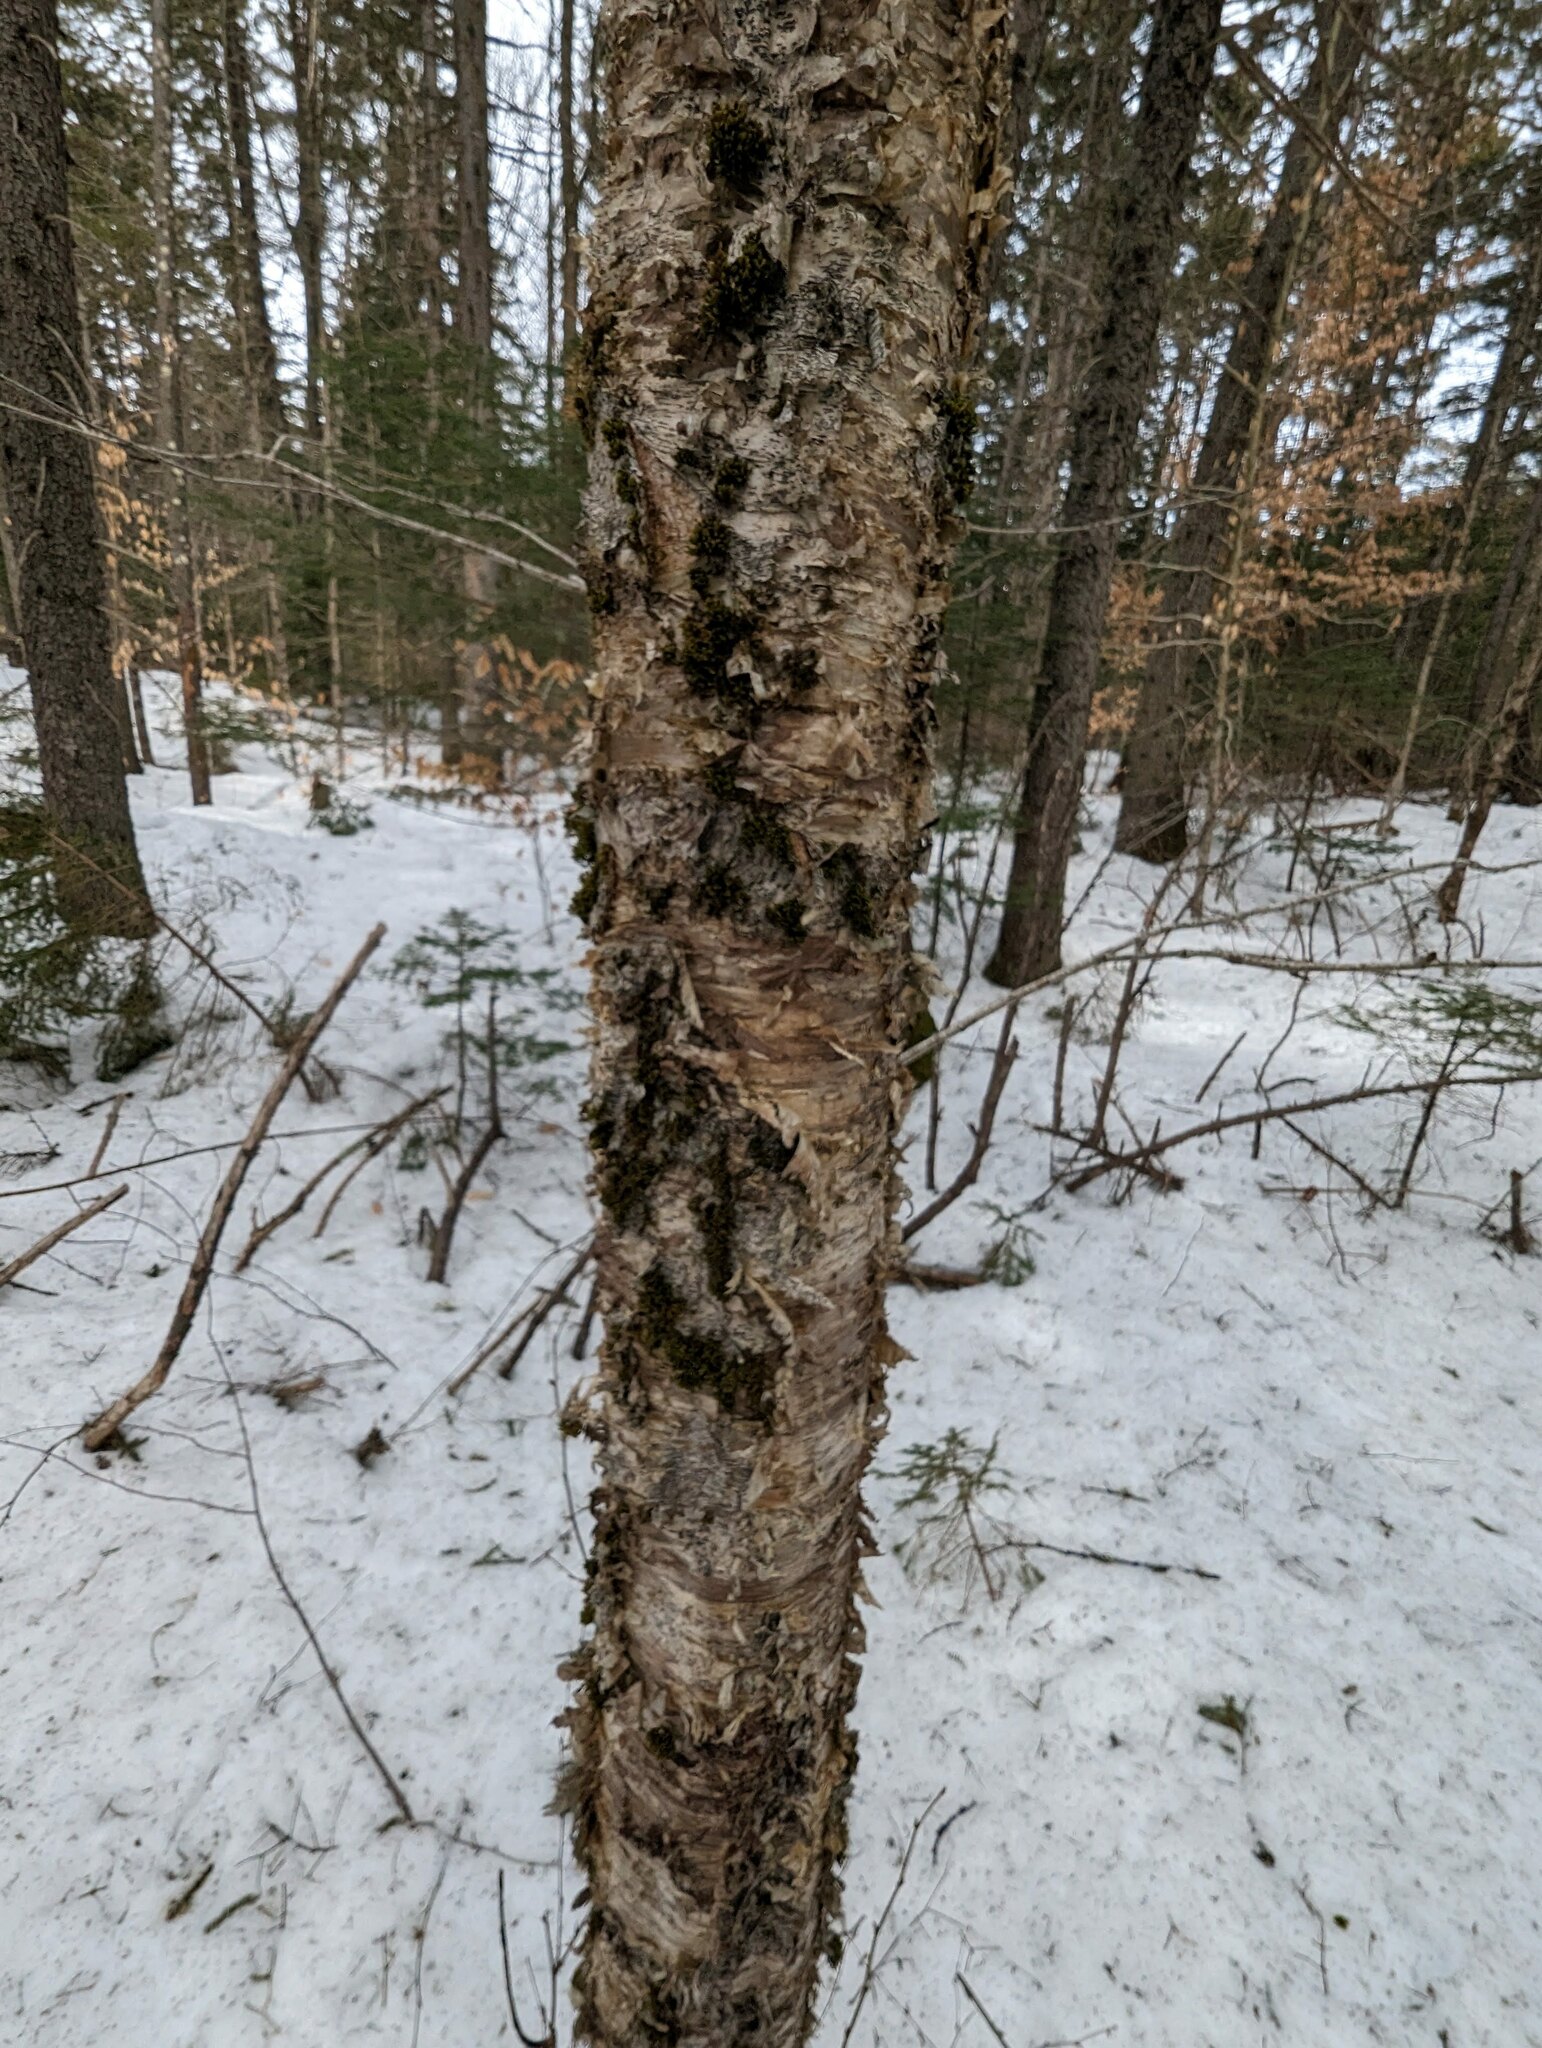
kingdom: Plantae
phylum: Tracheophyta
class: Magnoliopsida
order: Fagales
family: Betulaceae
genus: Betula
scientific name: Betula alleghaniensis
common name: Yellow birch
